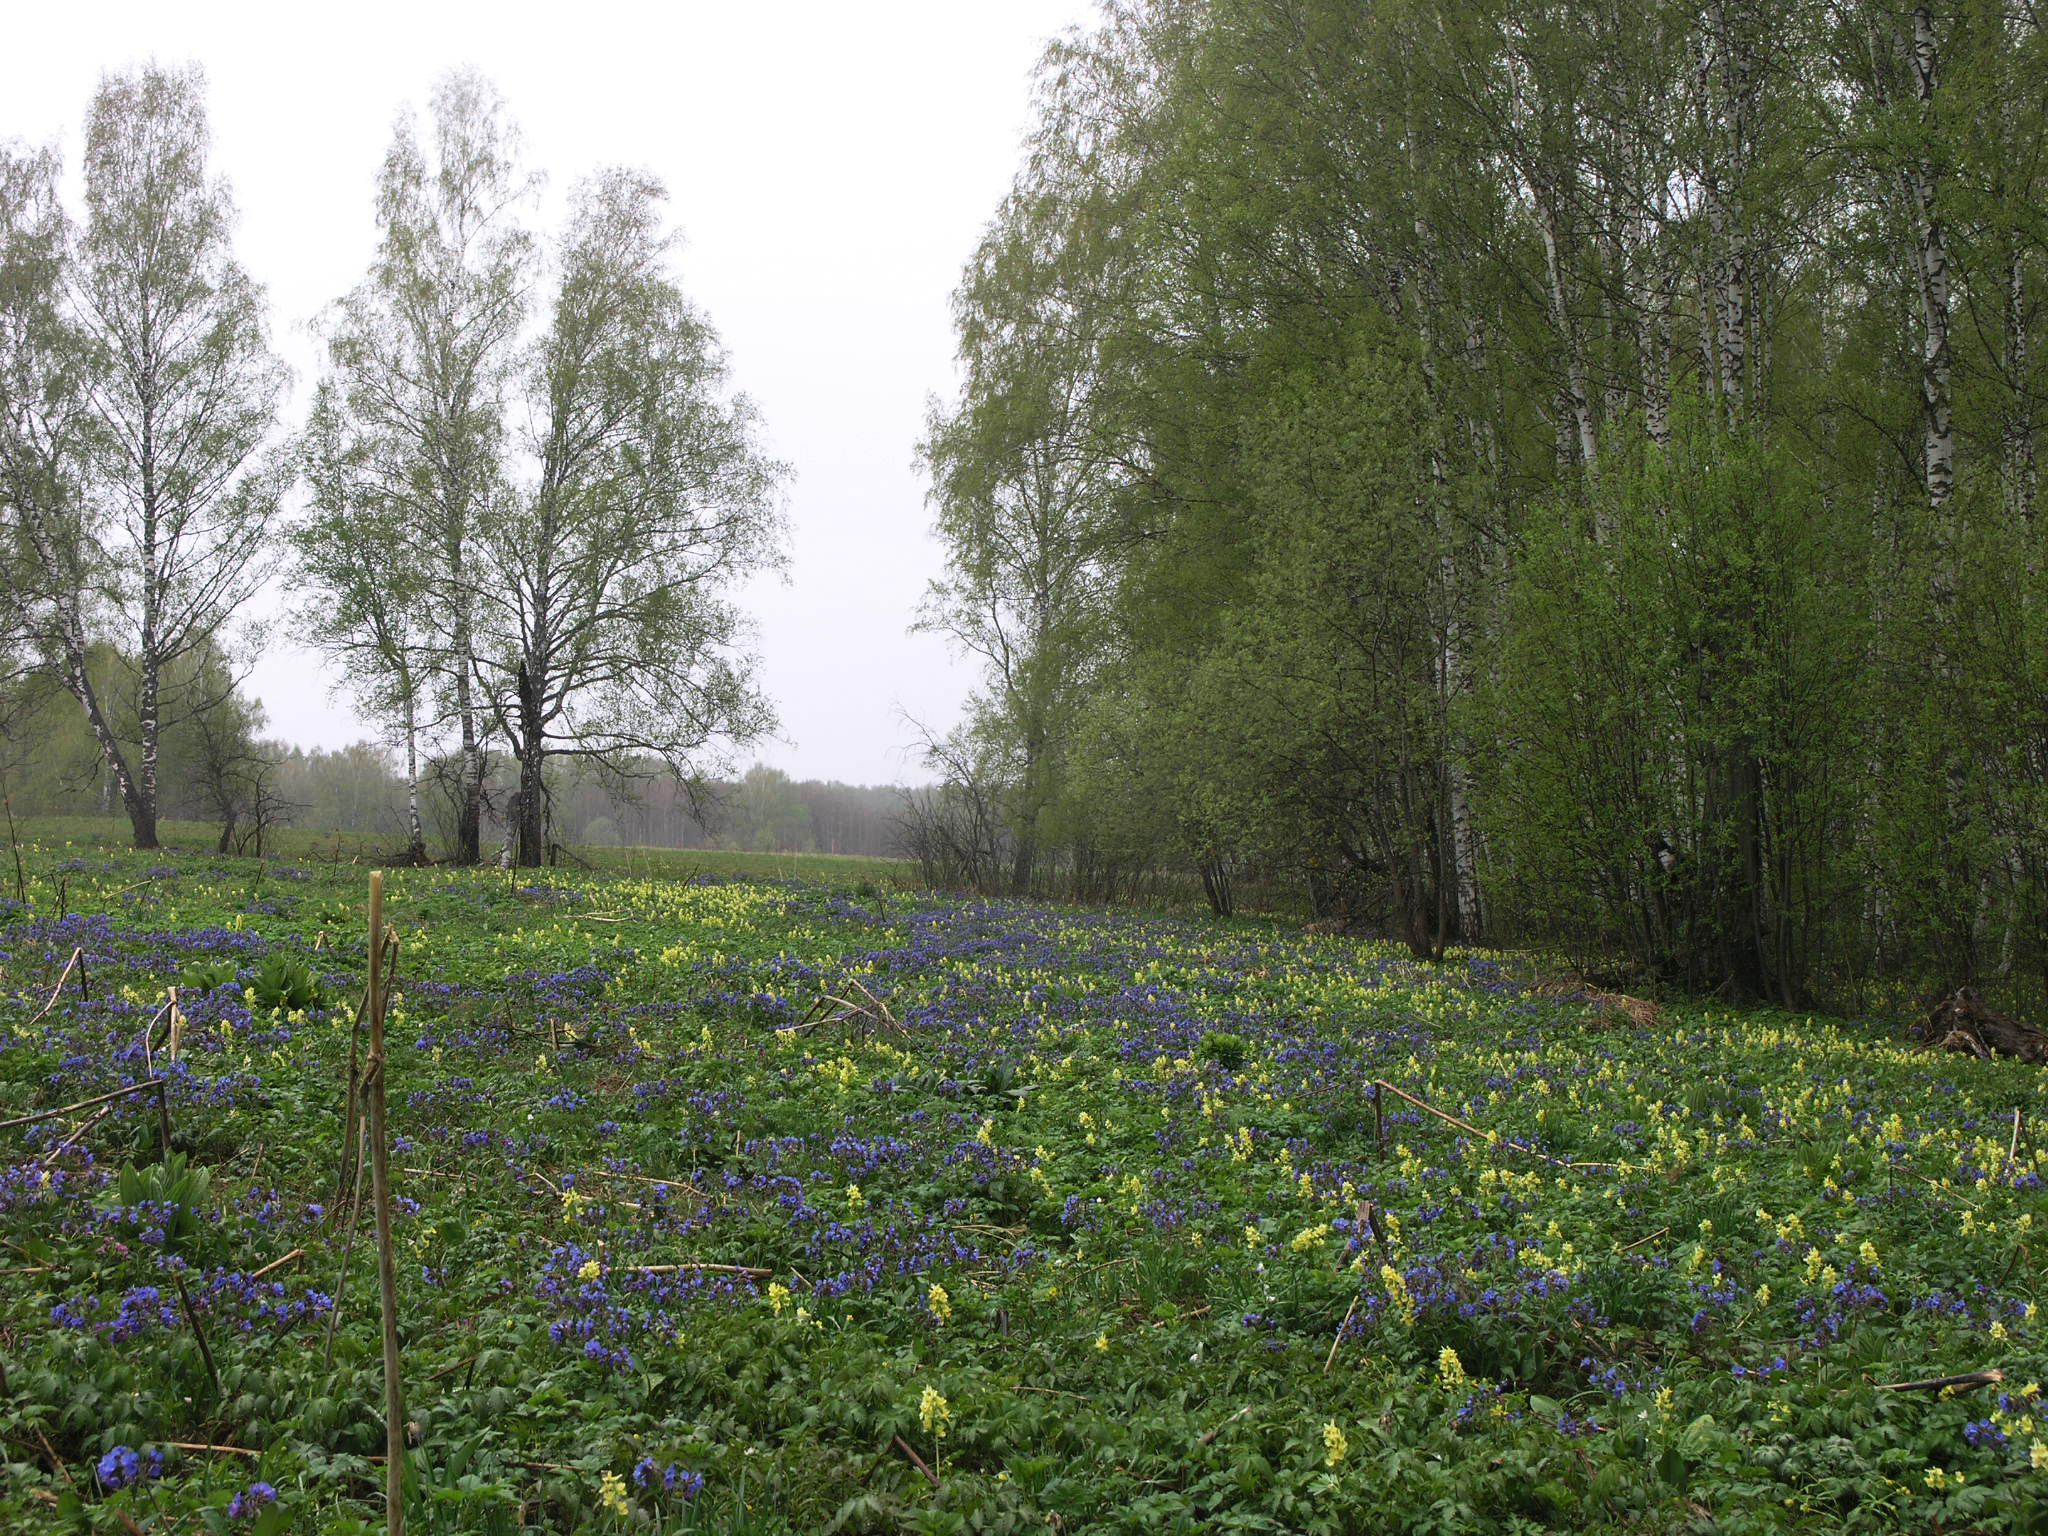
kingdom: Plantae
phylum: Tracheophyta
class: Magnoliopsida
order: Fagales
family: Betulaceae
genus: Betula
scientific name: Betula pendula
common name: Silver birch
